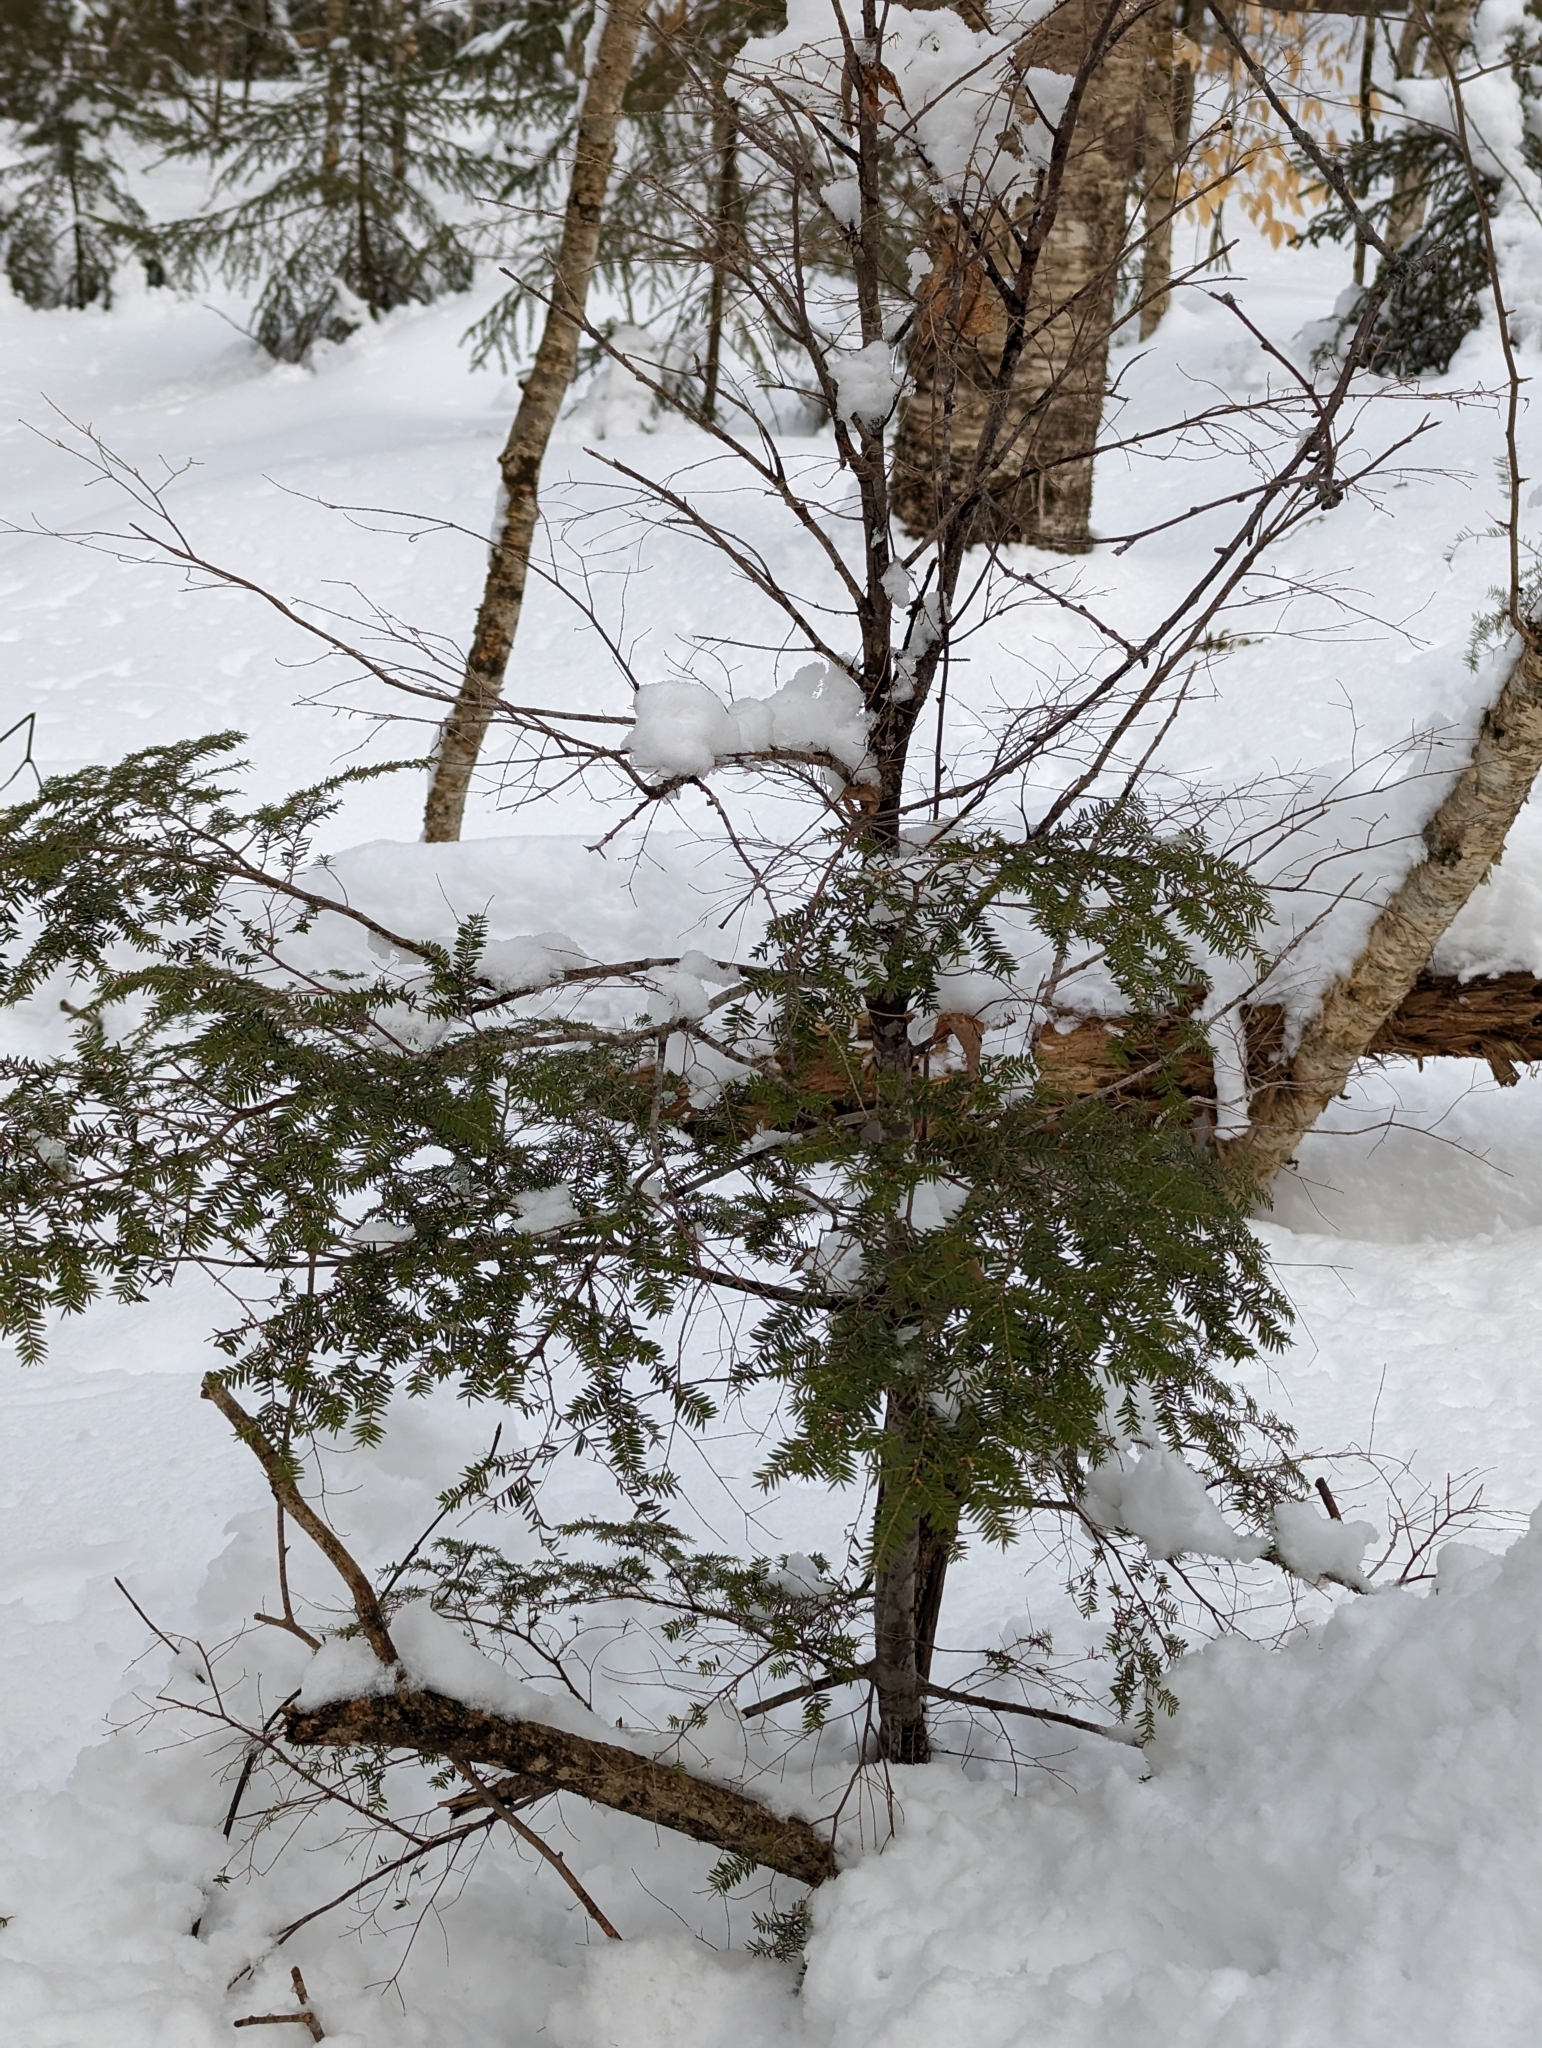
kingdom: Plantae
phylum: Tracheophyta
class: Pinopsida
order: Pinales
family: Pinaceae
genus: Tsuga
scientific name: Tsuga canadensis
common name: Eastern hemlock
